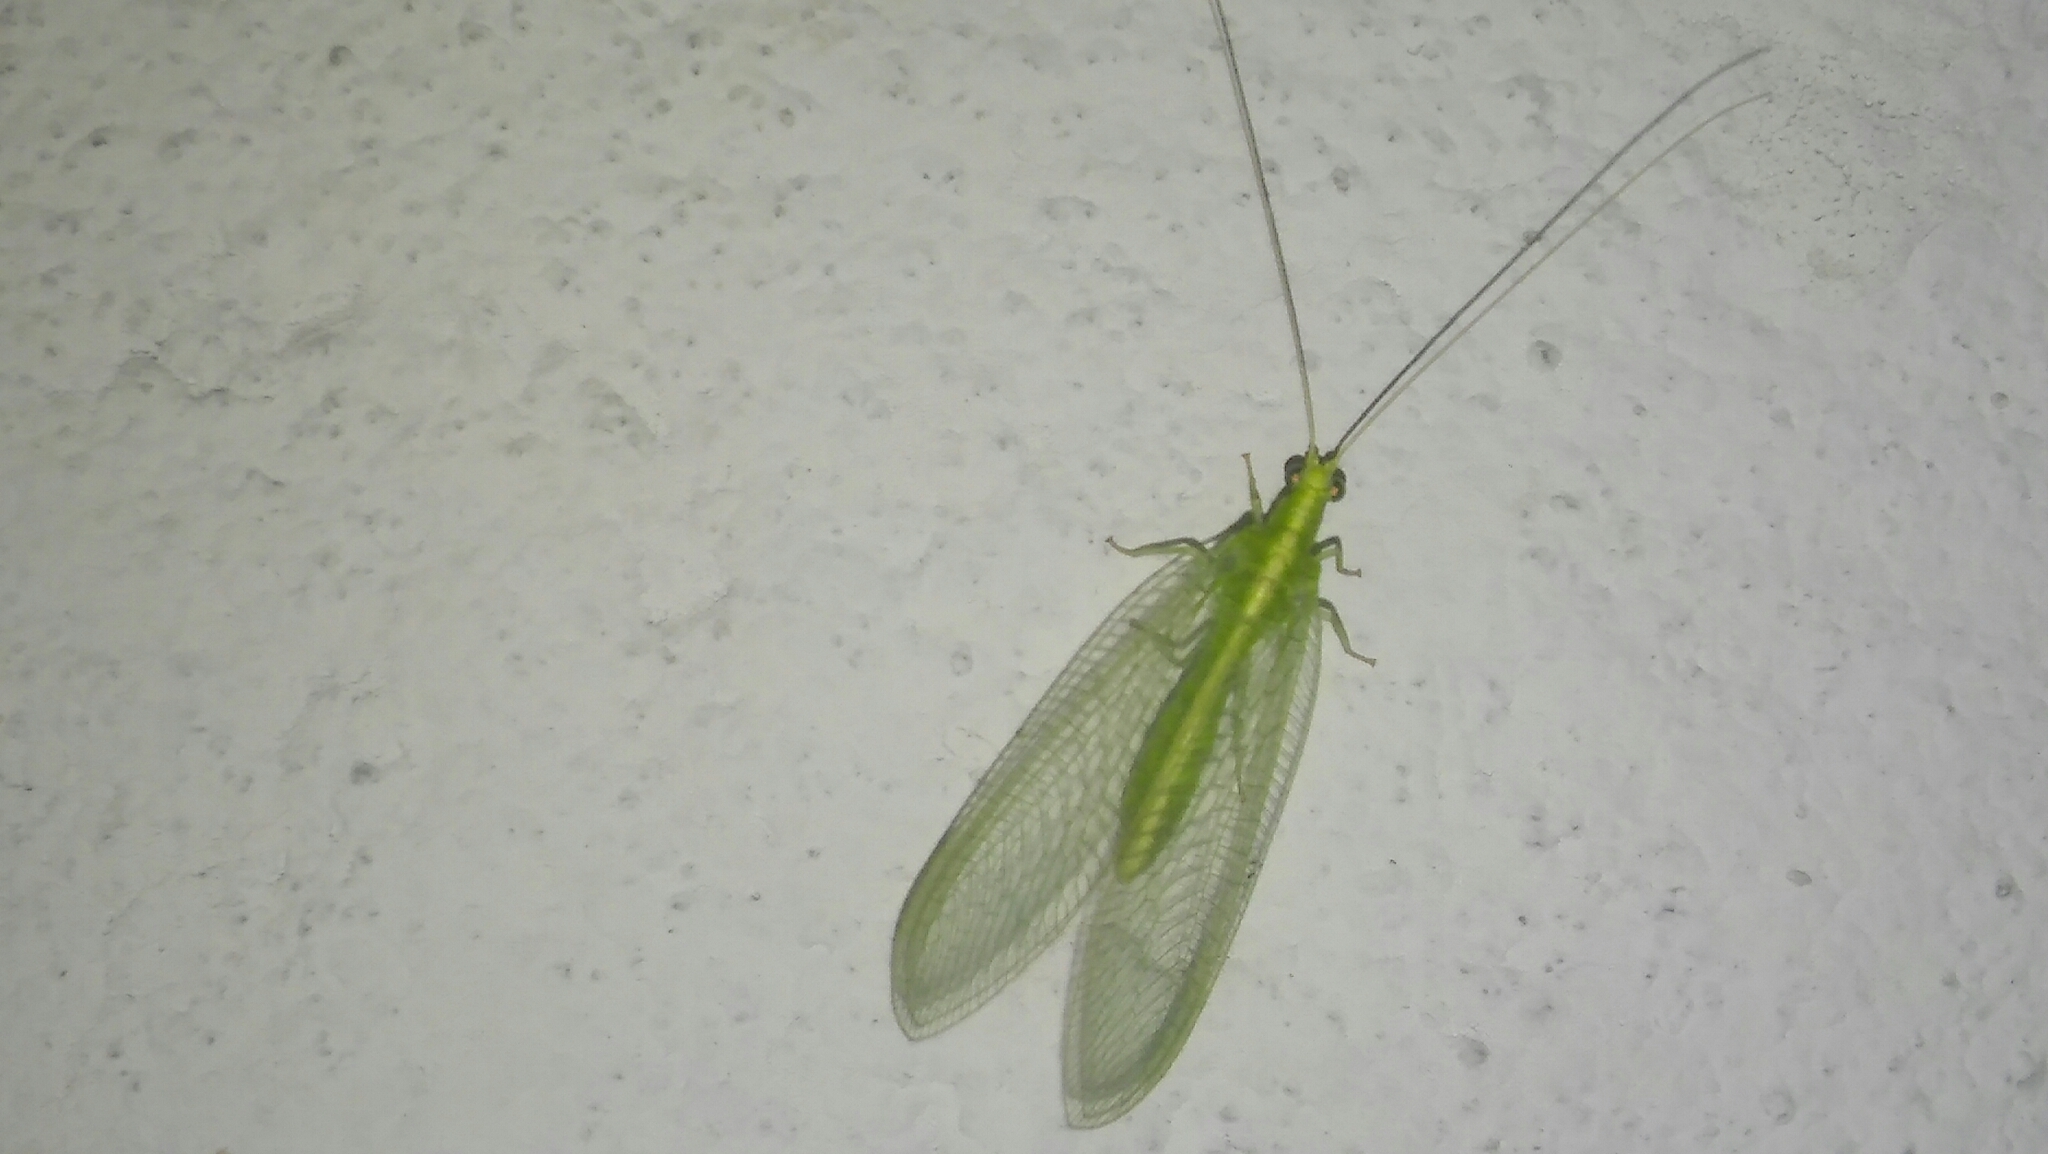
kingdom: Animalia
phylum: Arthropoda
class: Insecta
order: Neuroptera
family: Chrysopidae
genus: Chrysoperla
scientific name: Chrysoperla externa
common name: Green lacewing
